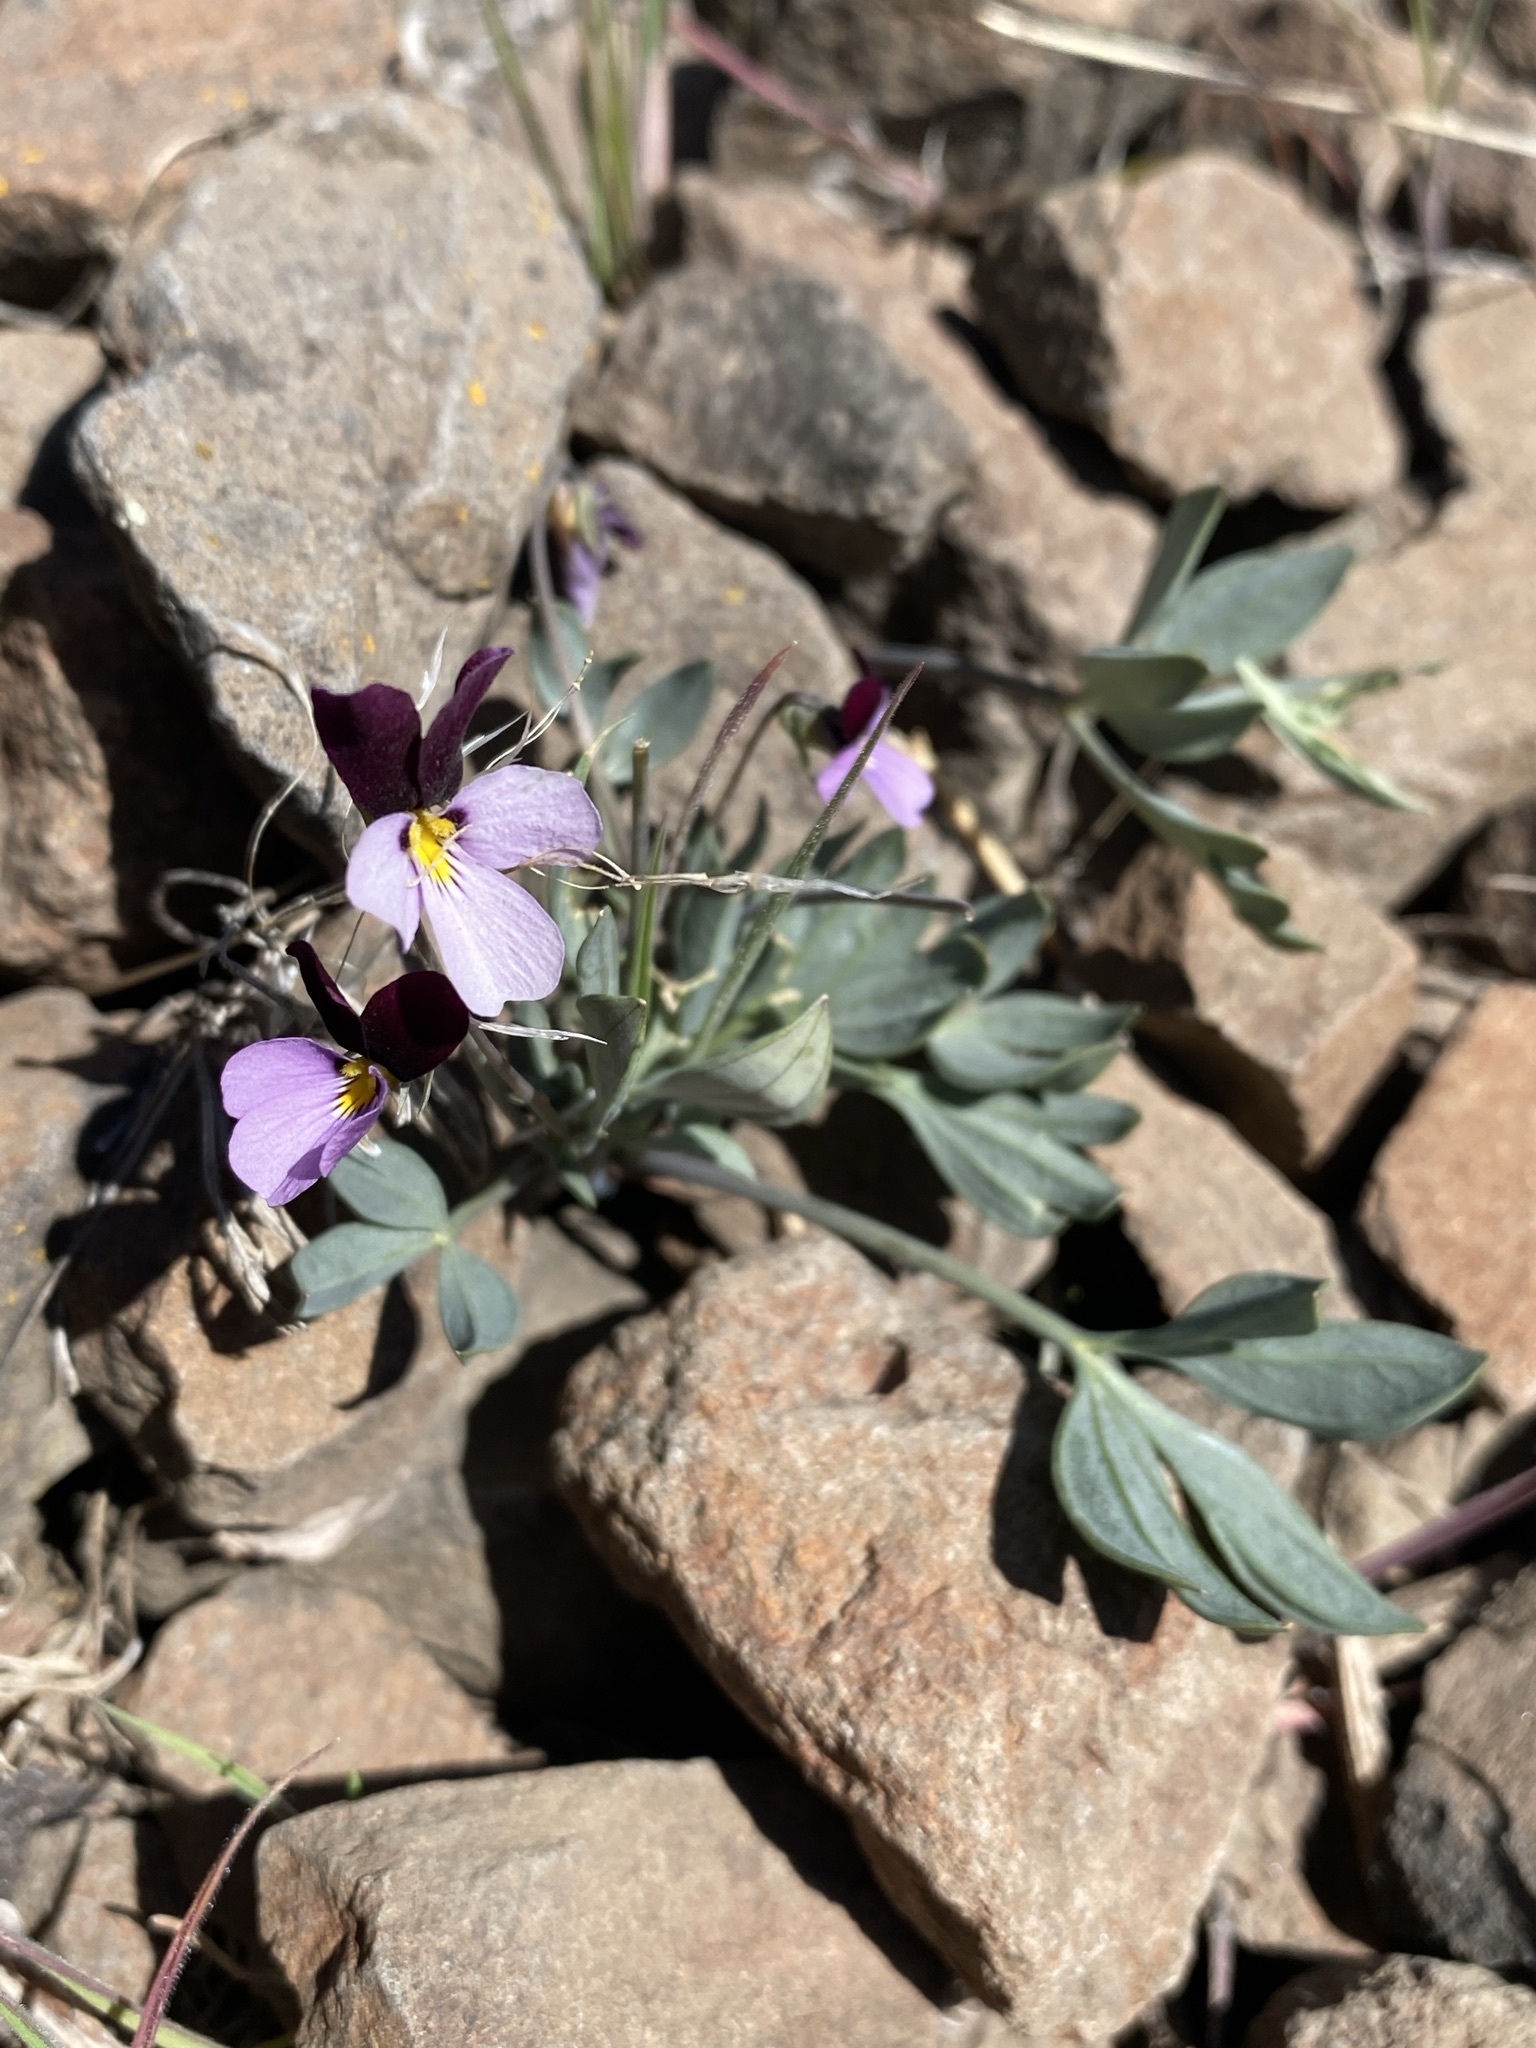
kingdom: Plantae
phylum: Tracheophyta
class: Magnoliopsida
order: Malpighiales
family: Violaceae
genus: Viola
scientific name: Viola trinervata
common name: Sagebrush violet
